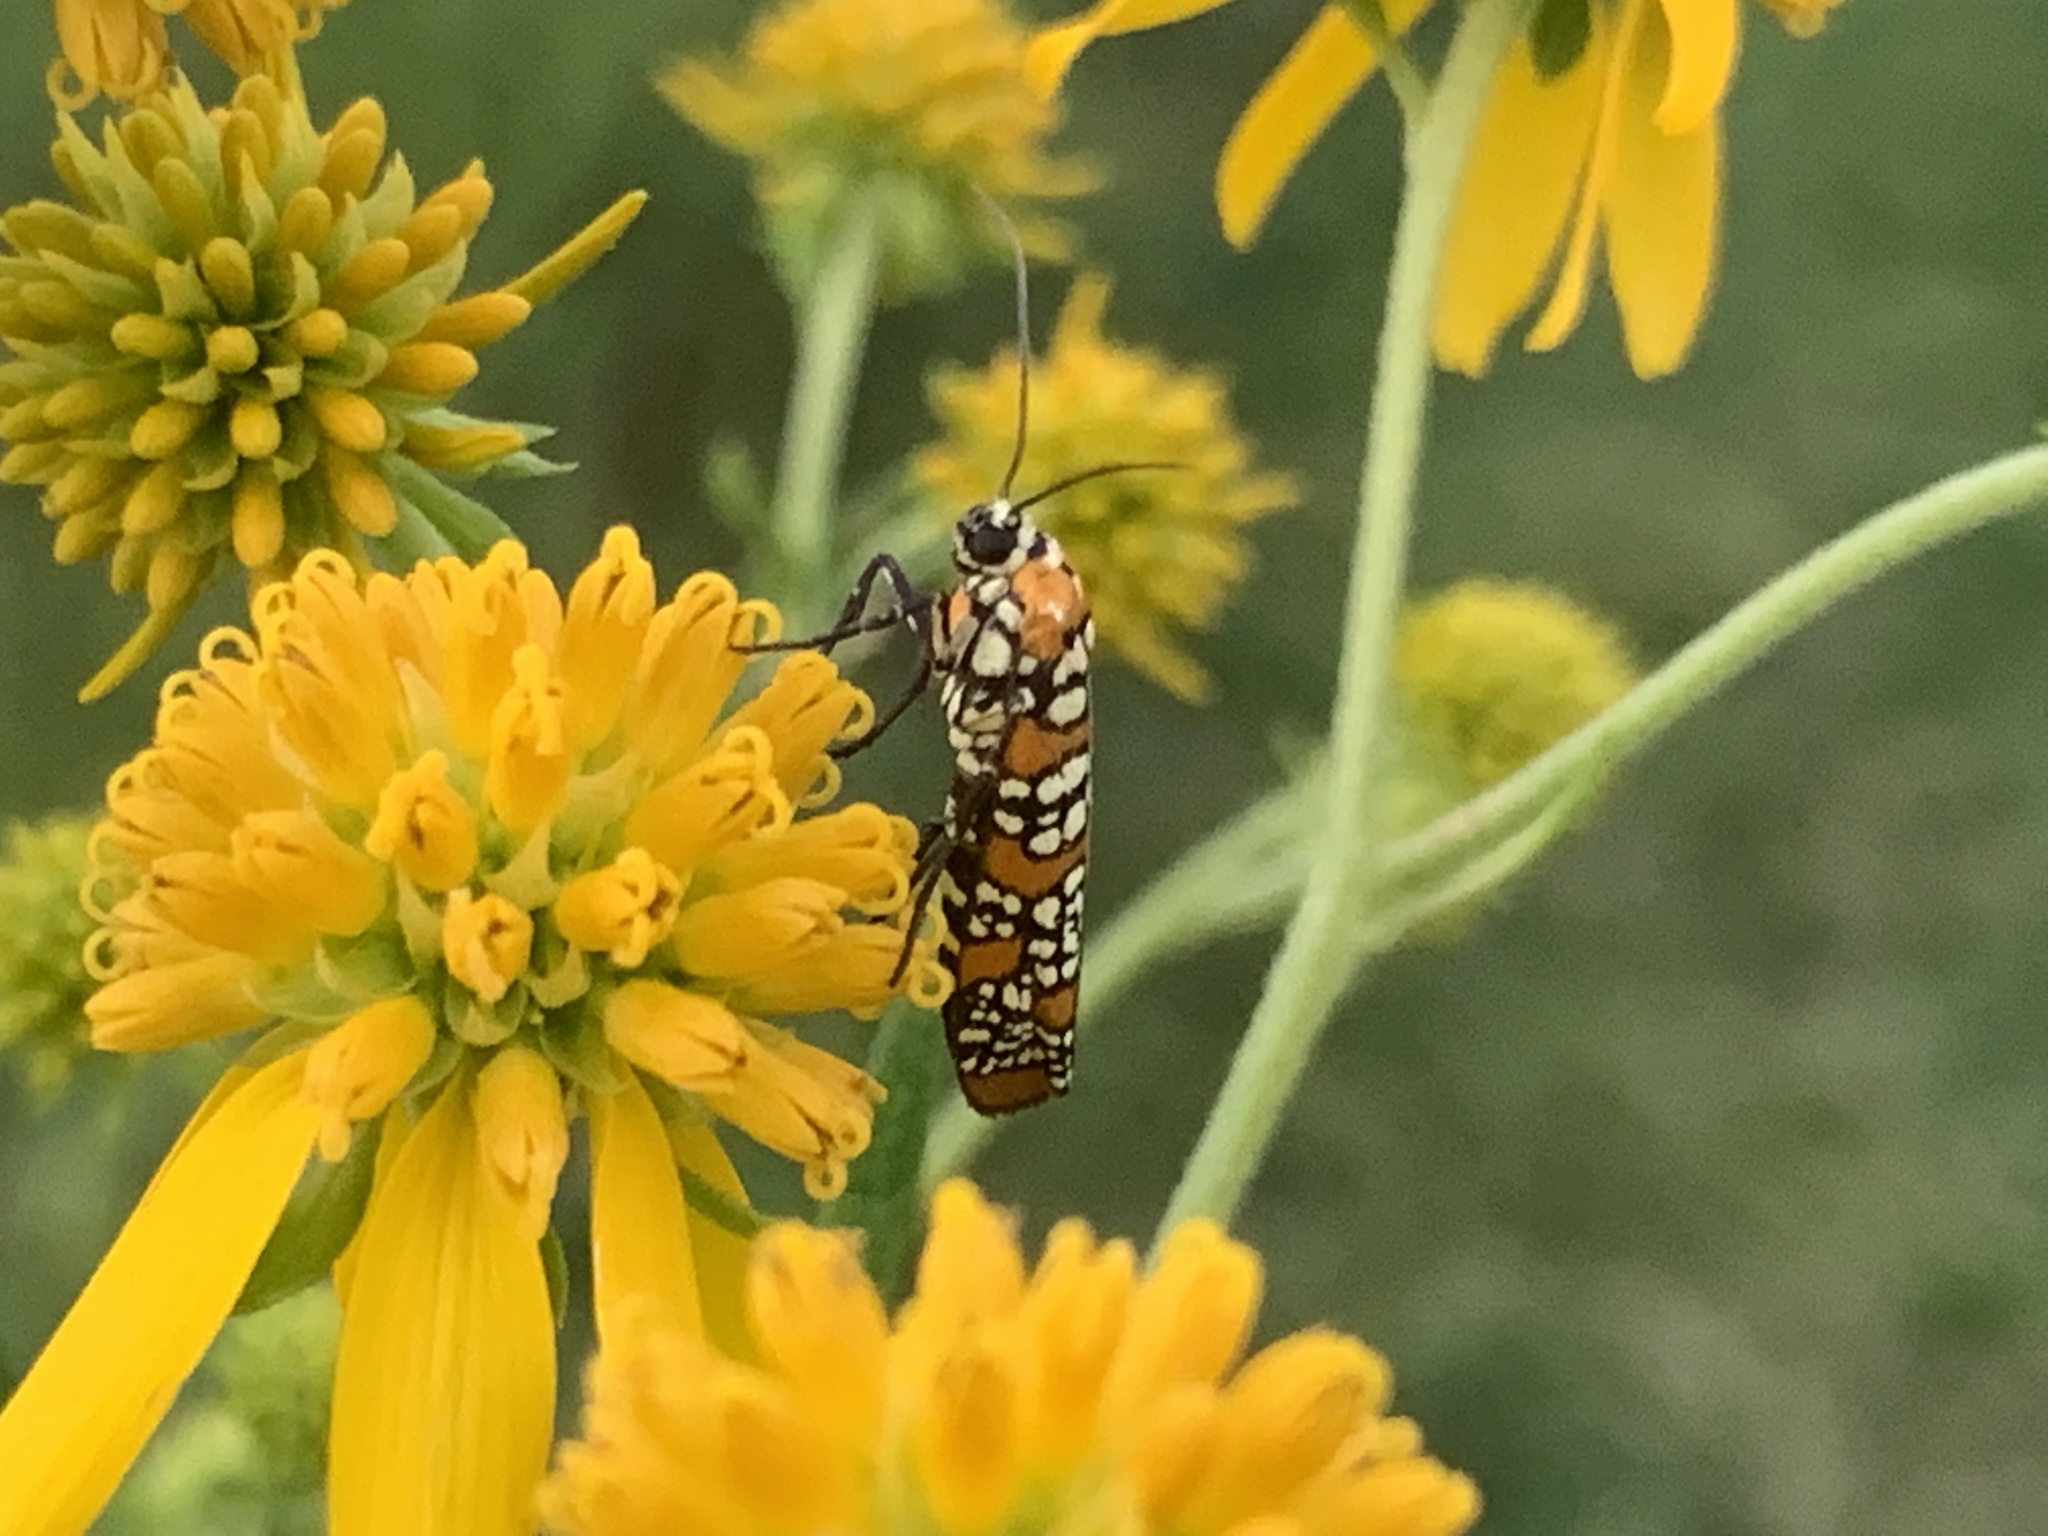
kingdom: Animalia
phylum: Arthropoda
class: Insecta
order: Lepidoptera
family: Attevidae
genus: Atteva
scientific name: Atteva punctella
